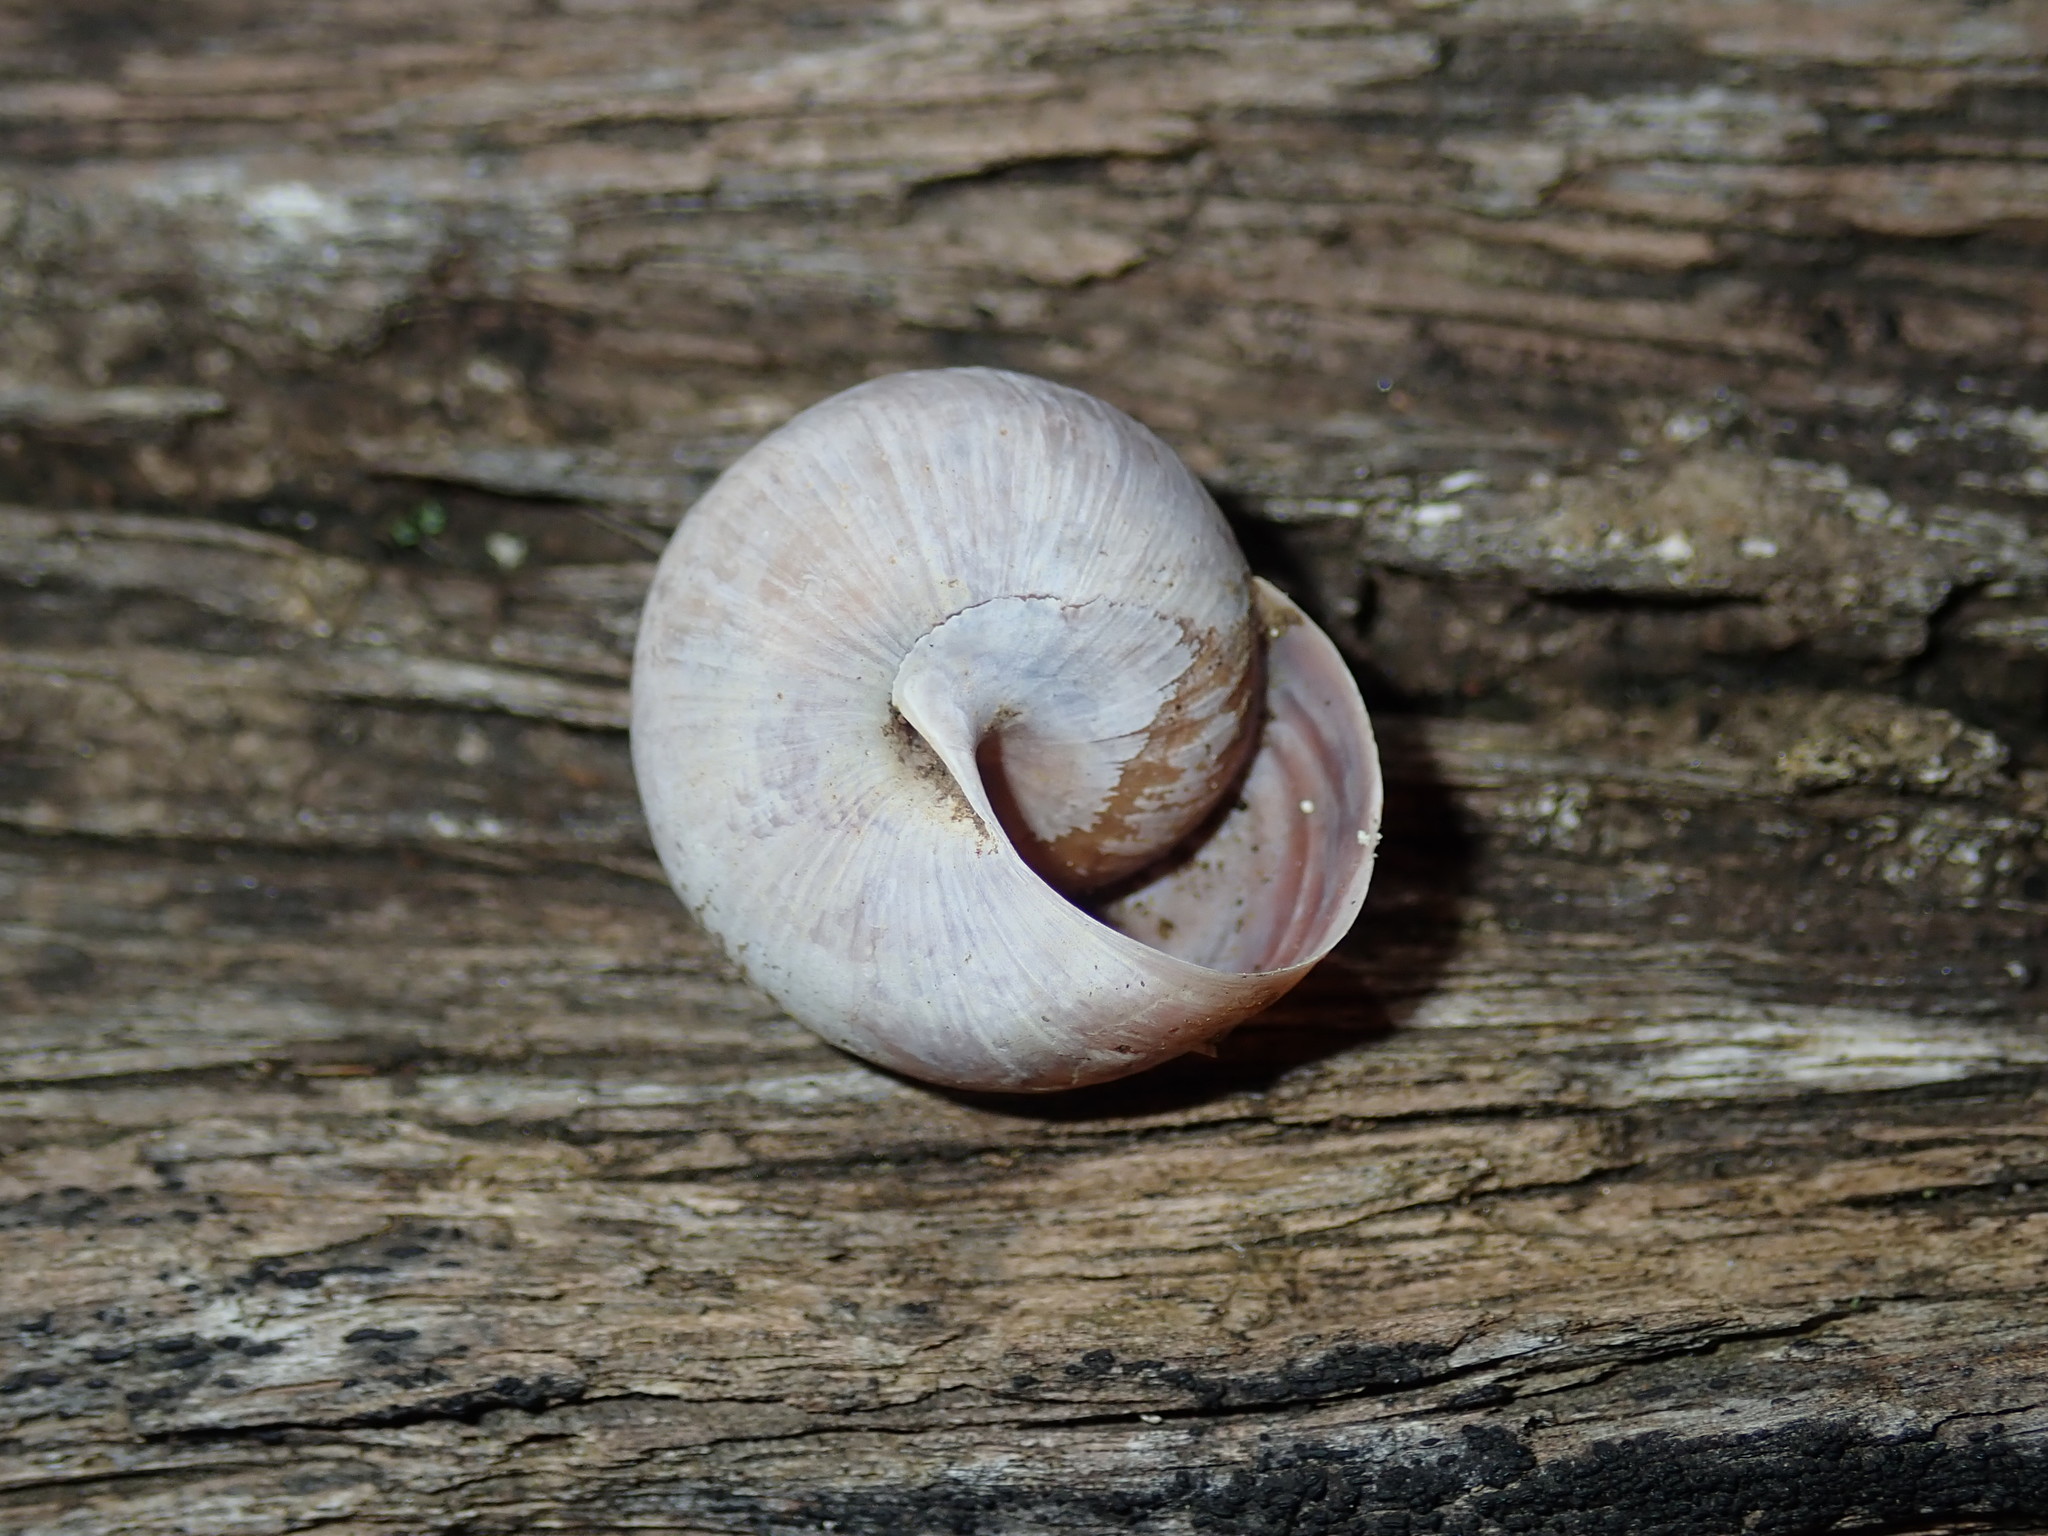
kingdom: Animalia
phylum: Mollusca
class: Gastropoda
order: Stylommatophora
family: Camaenidae
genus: Sauroconcha
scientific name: Sauroconcha sheai
